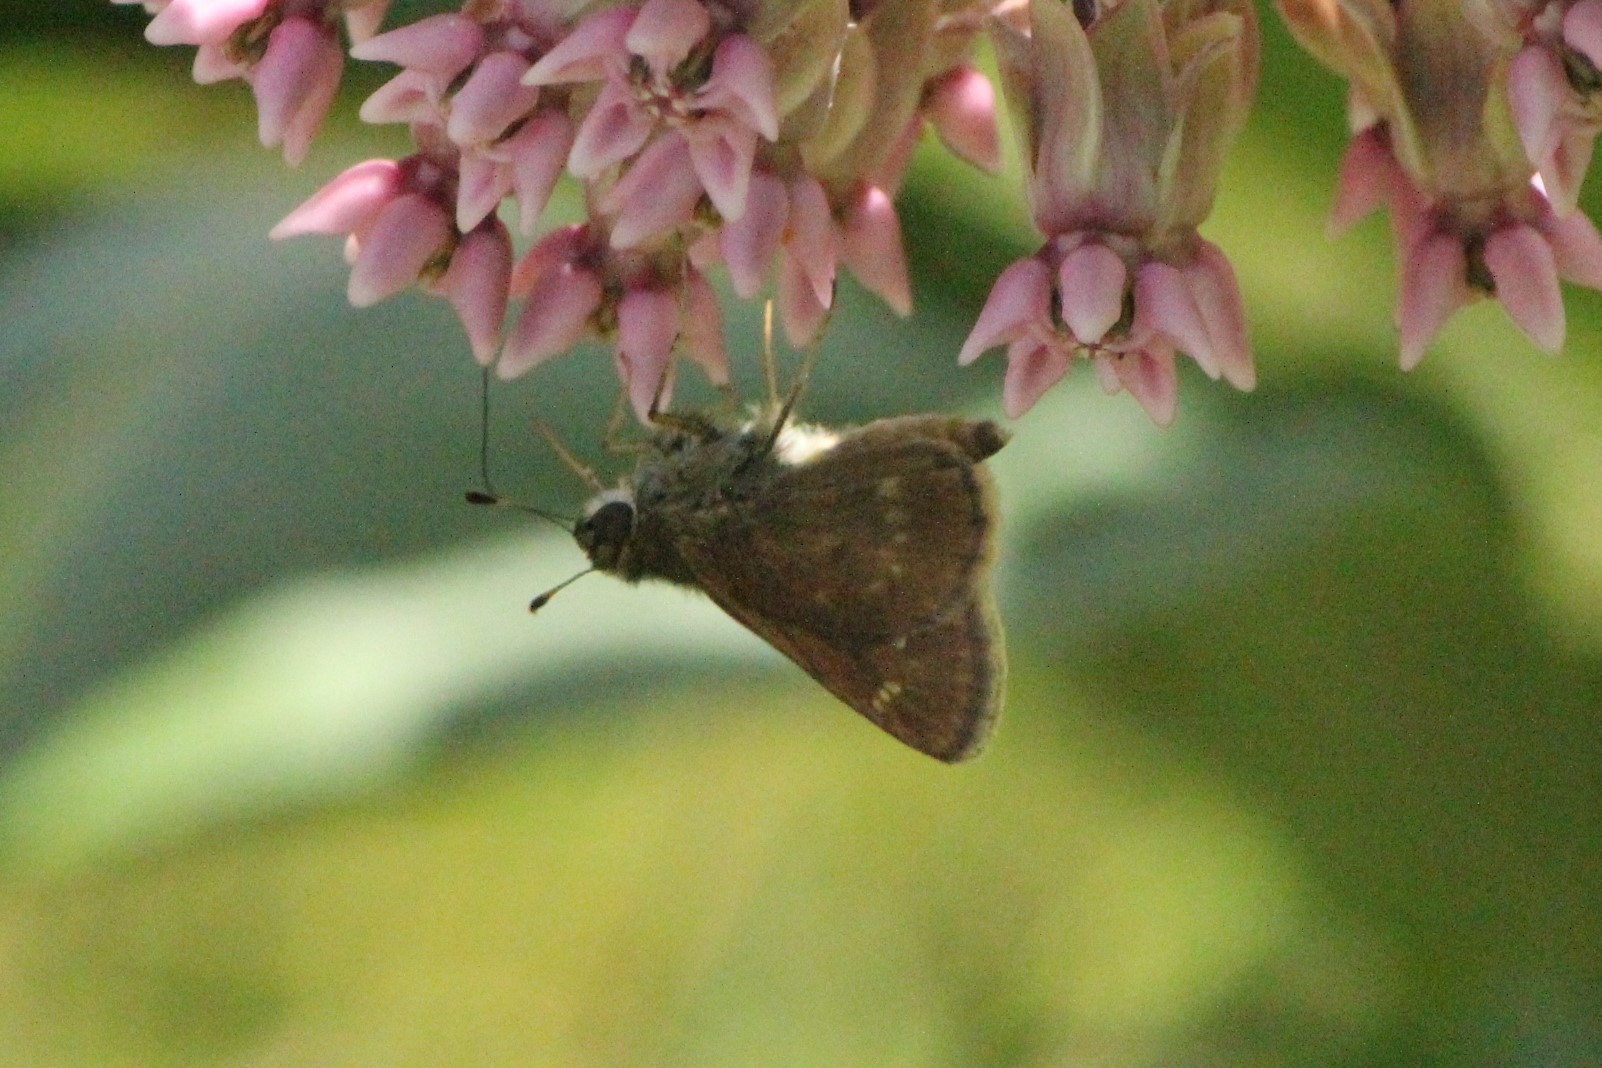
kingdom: Animalia
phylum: Arthropoda
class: Insecta
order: Lepidoptera
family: Hesperiidae
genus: Vernia
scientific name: Vernia verna
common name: Little glassywing
